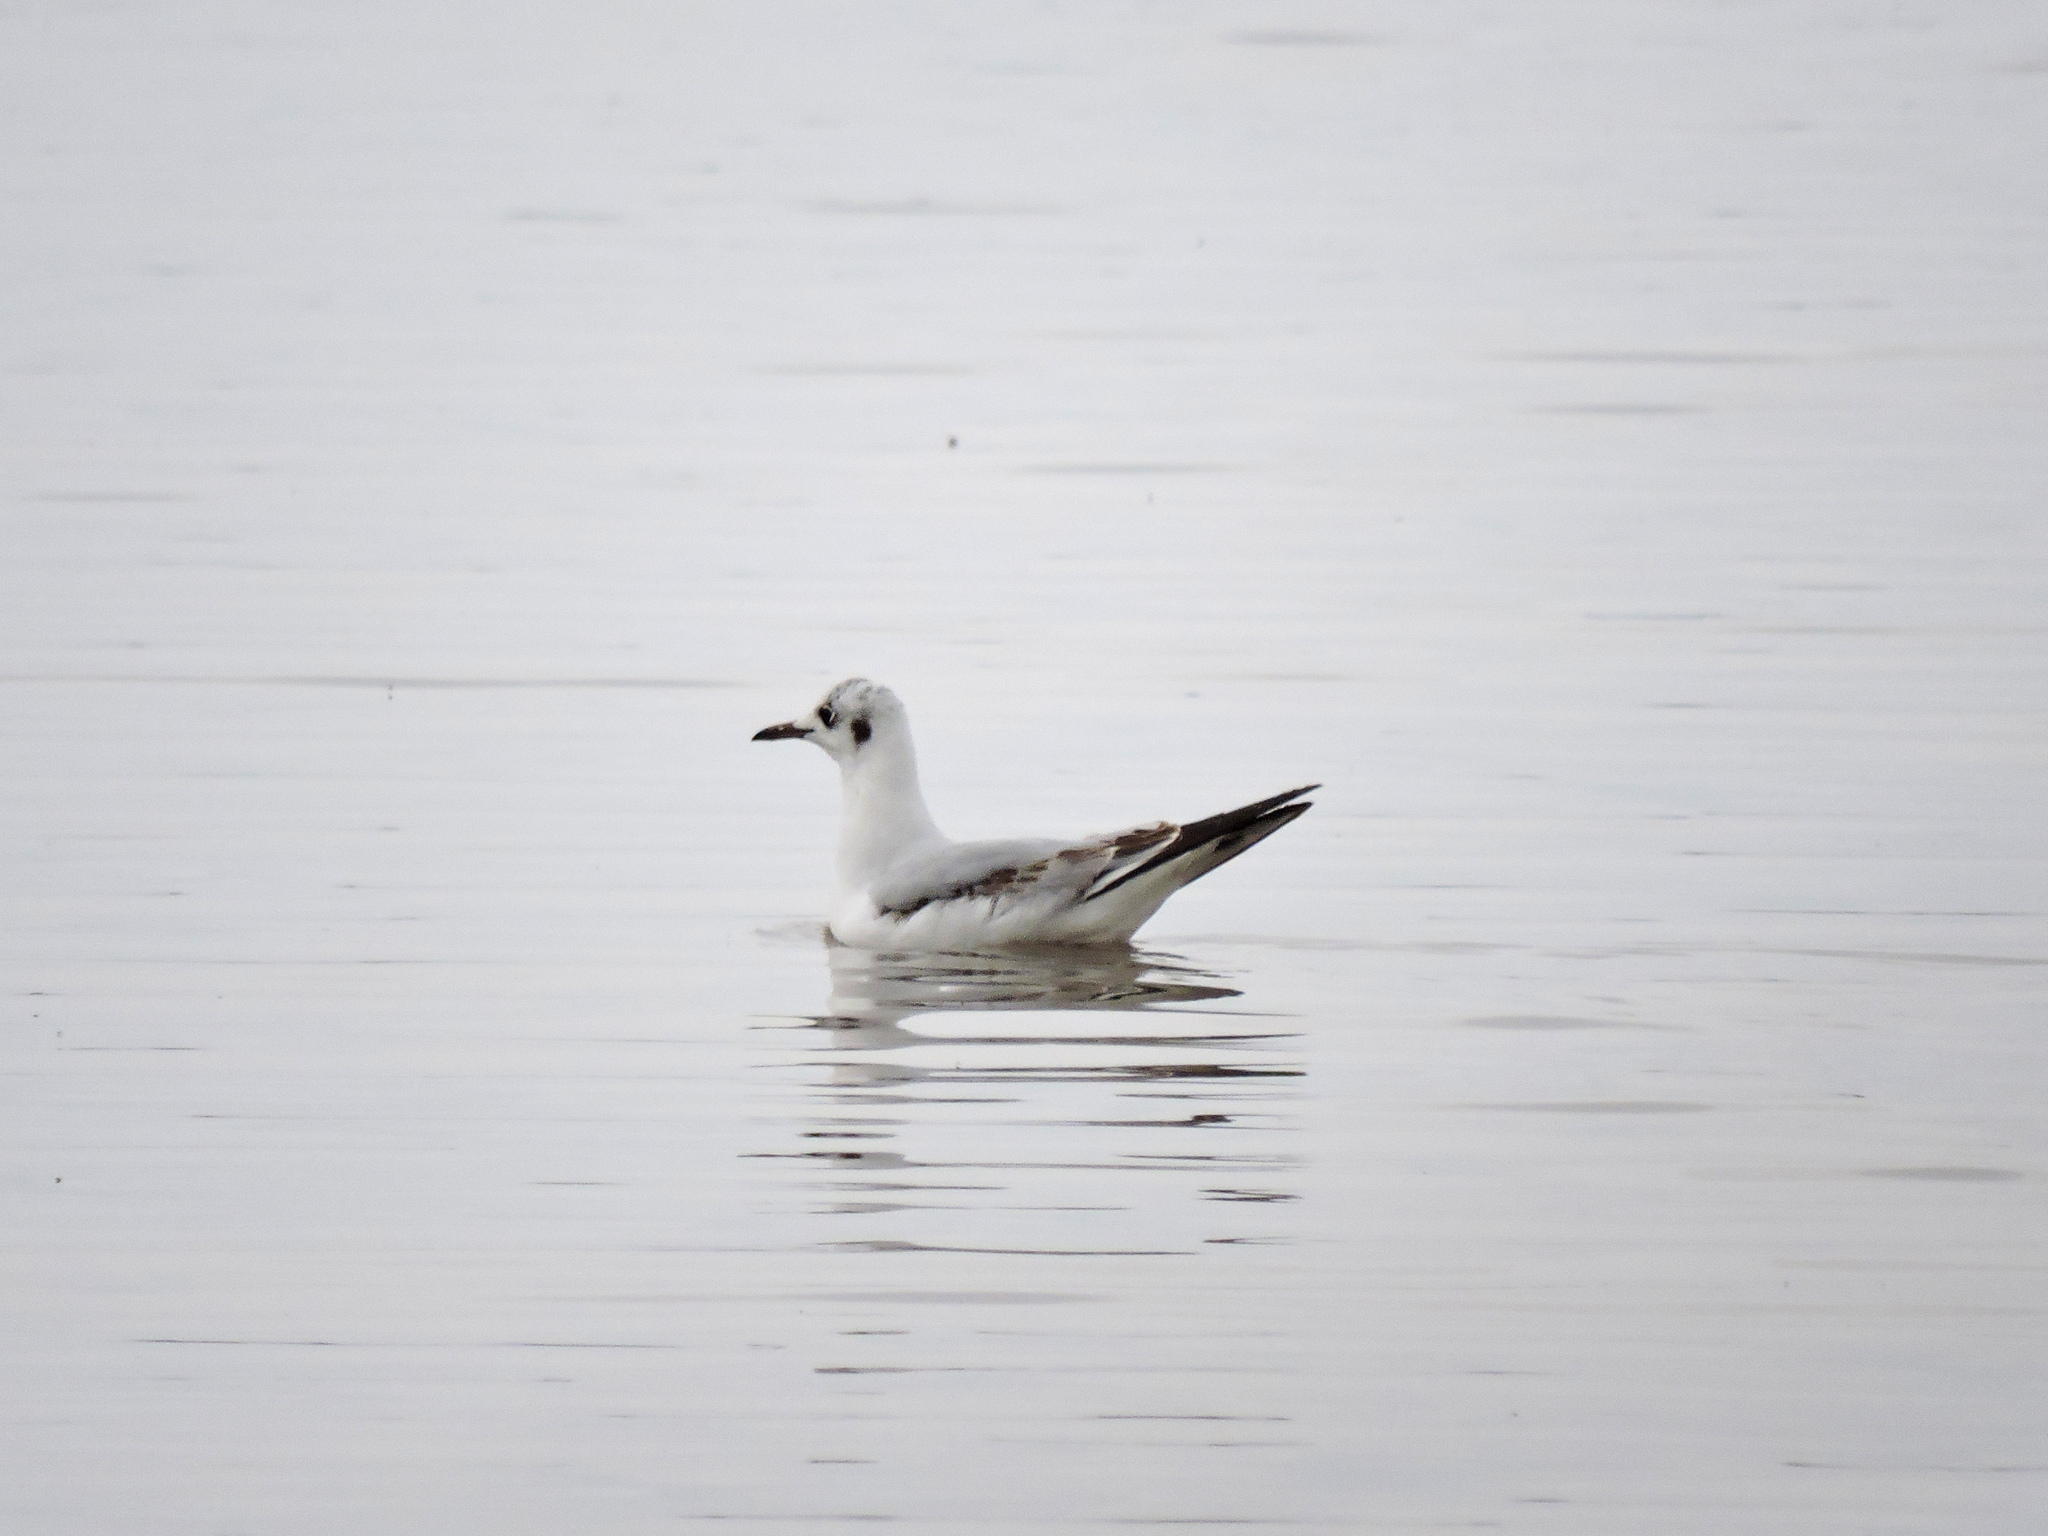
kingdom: Animalia
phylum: Chordata
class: Aves
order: Charadriiformes
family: Laridae
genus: Chroicocephalus
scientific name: Chroicocephalus ridibundus
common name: Black-headed gull
